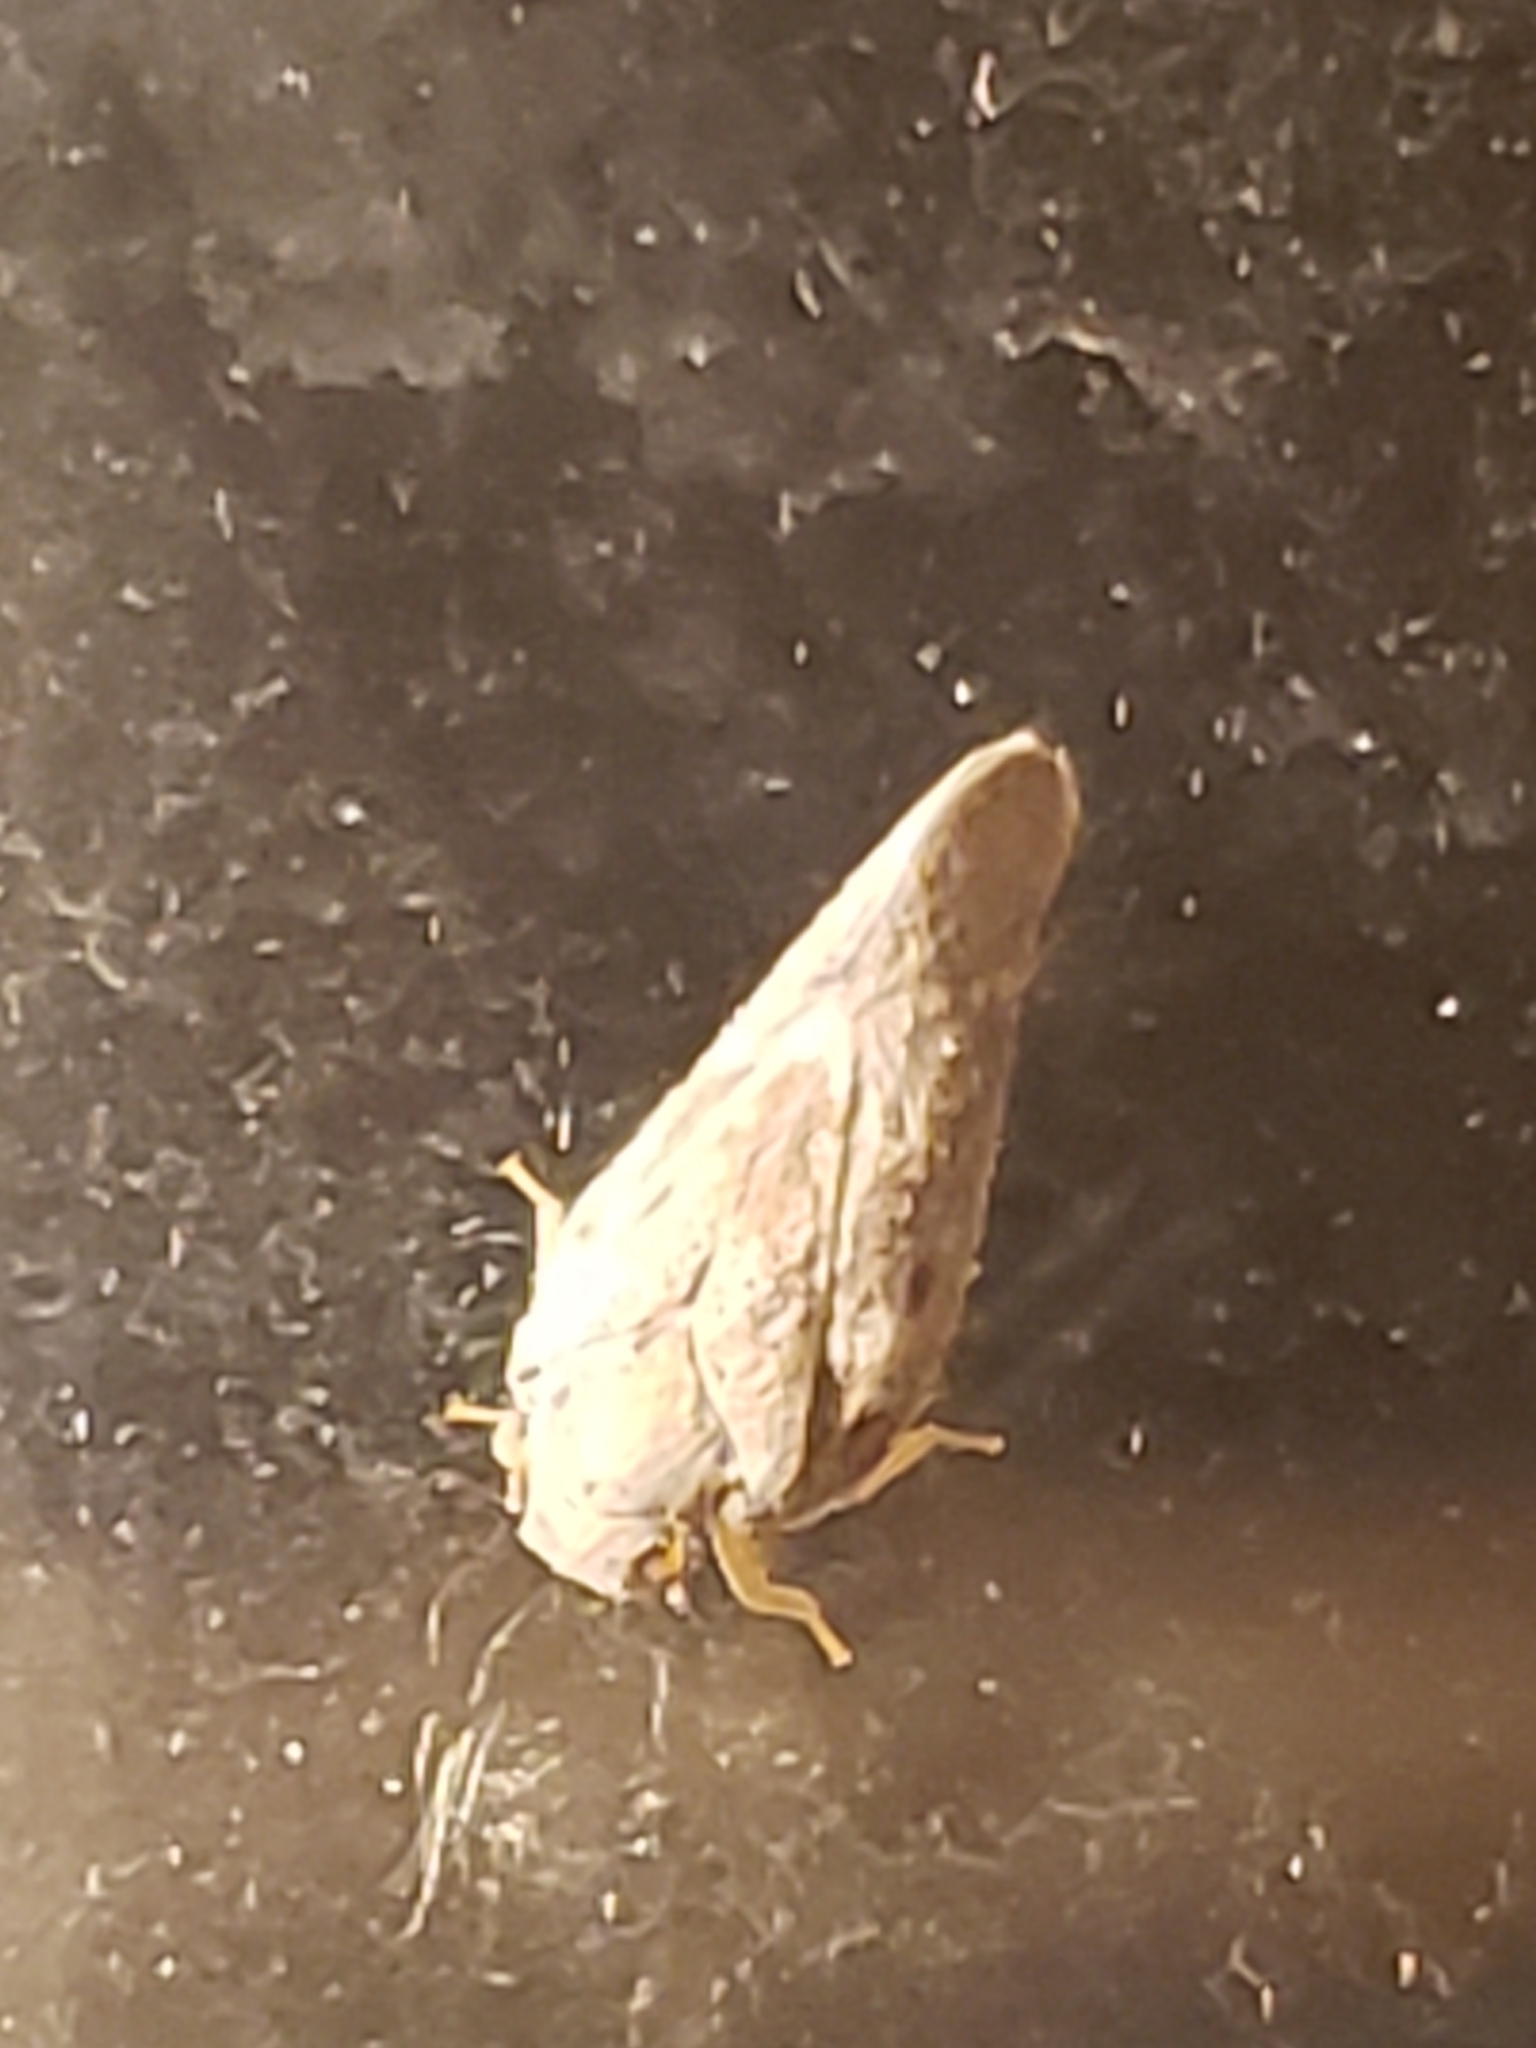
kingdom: Animalia
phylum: Arthropoda
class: Insecta
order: Hemiptera
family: Flatidae
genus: Metcalfa
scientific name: Metcalfa pruinosa
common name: Citrus flatid planthopper
